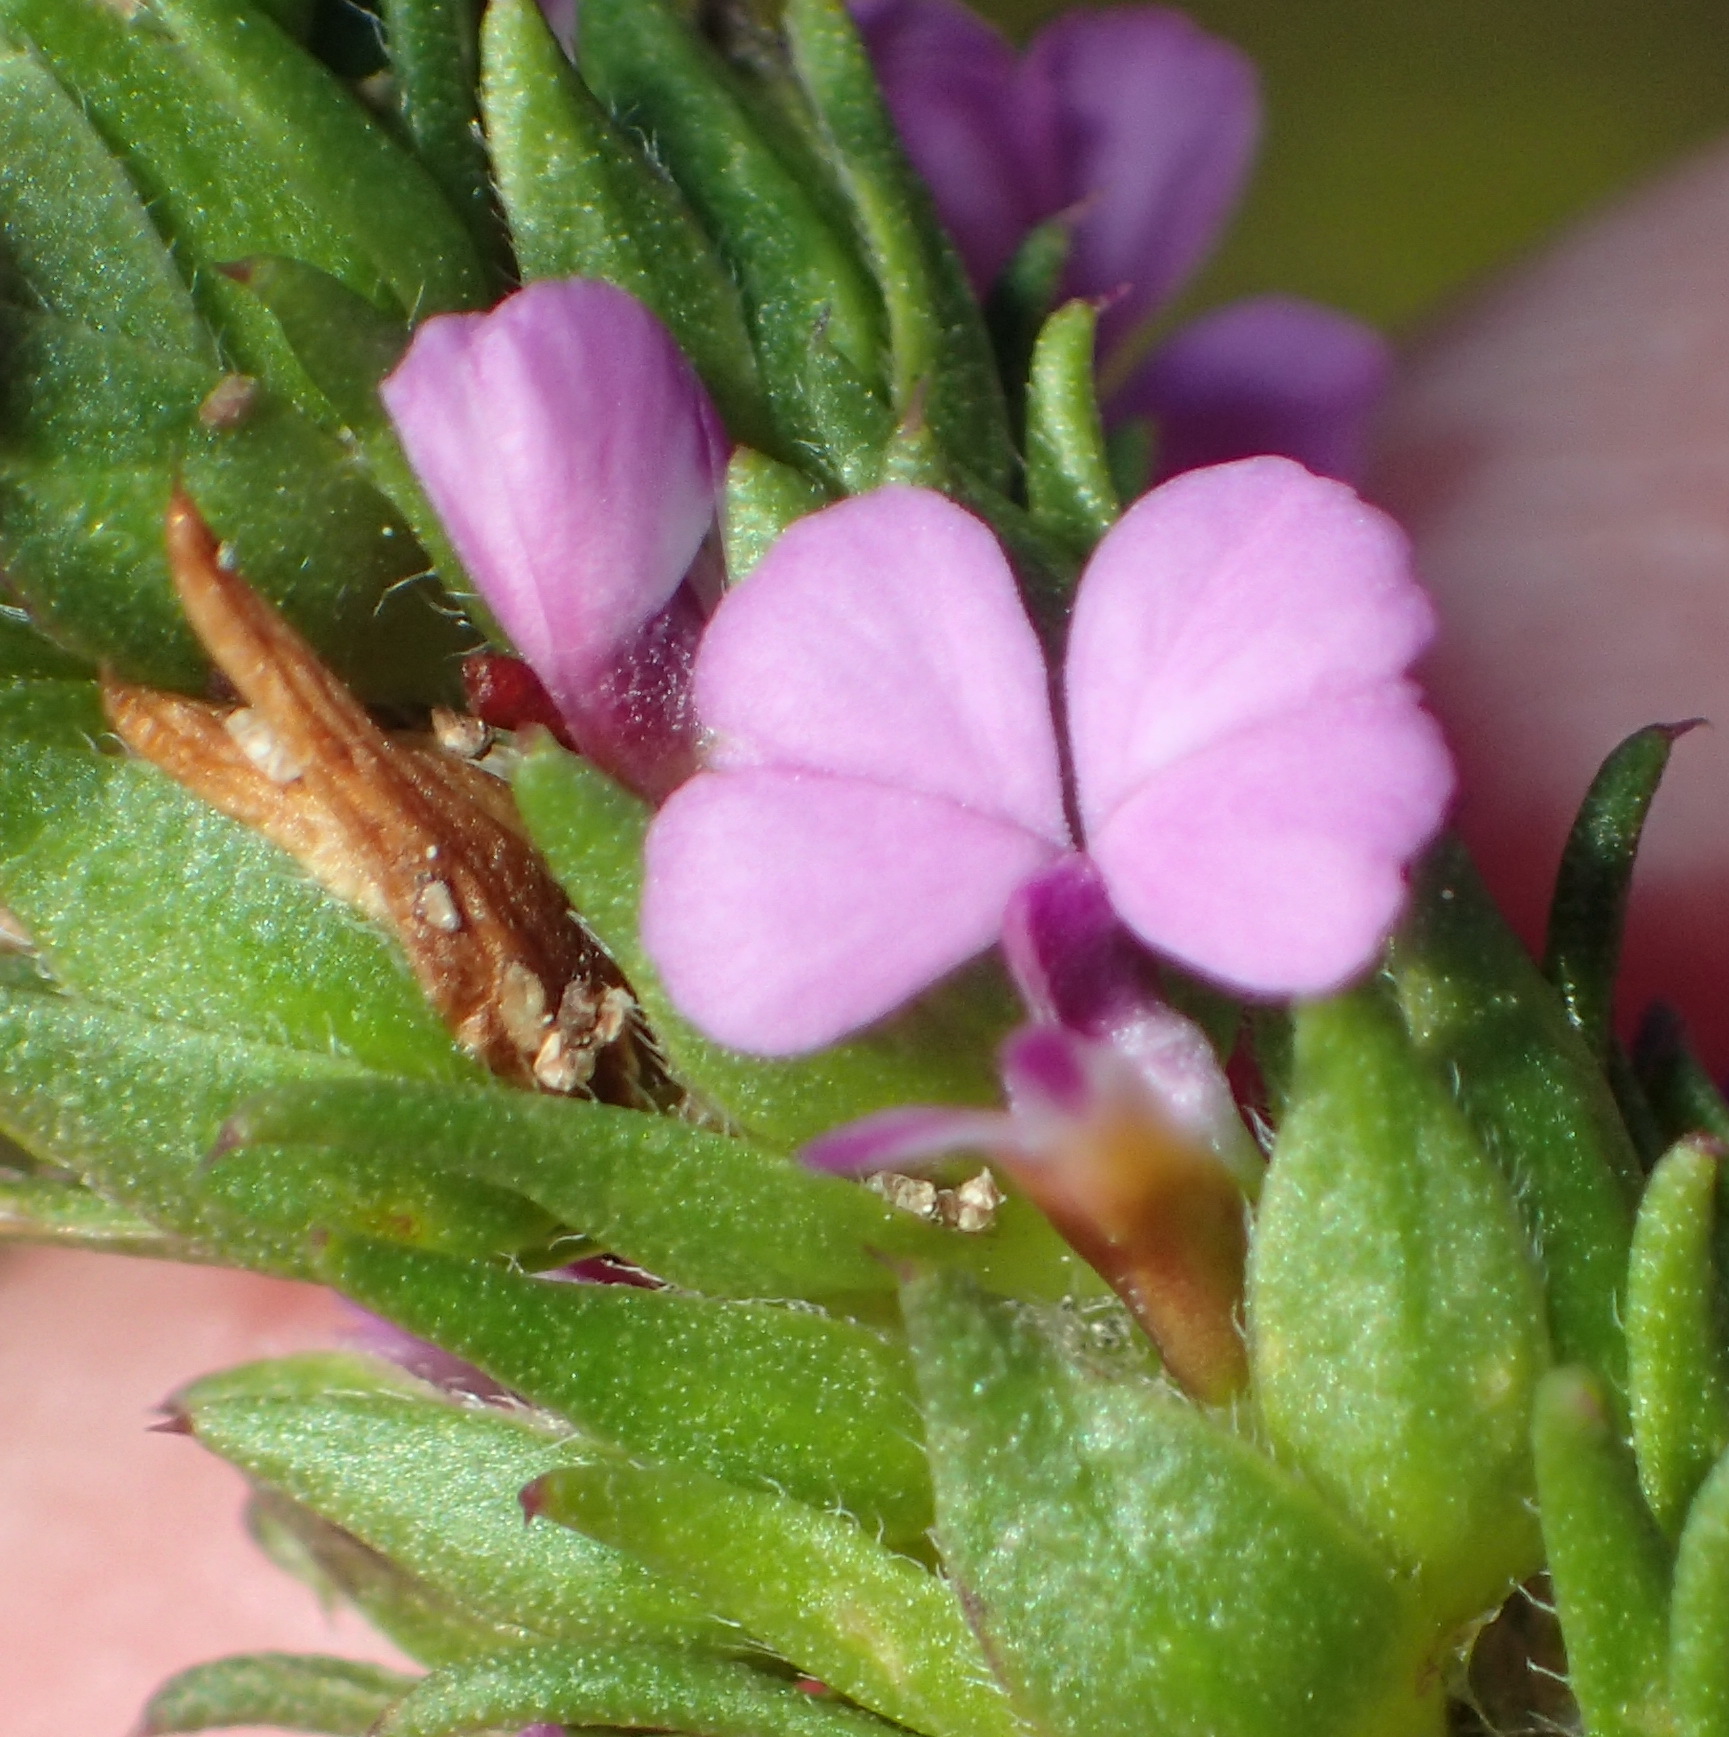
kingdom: Plantae
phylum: Tracheophyta
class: Magnoliopsida
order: Fabales
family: Polygalaceae
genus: Muraltia
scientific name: Muraltia alopecuroides
